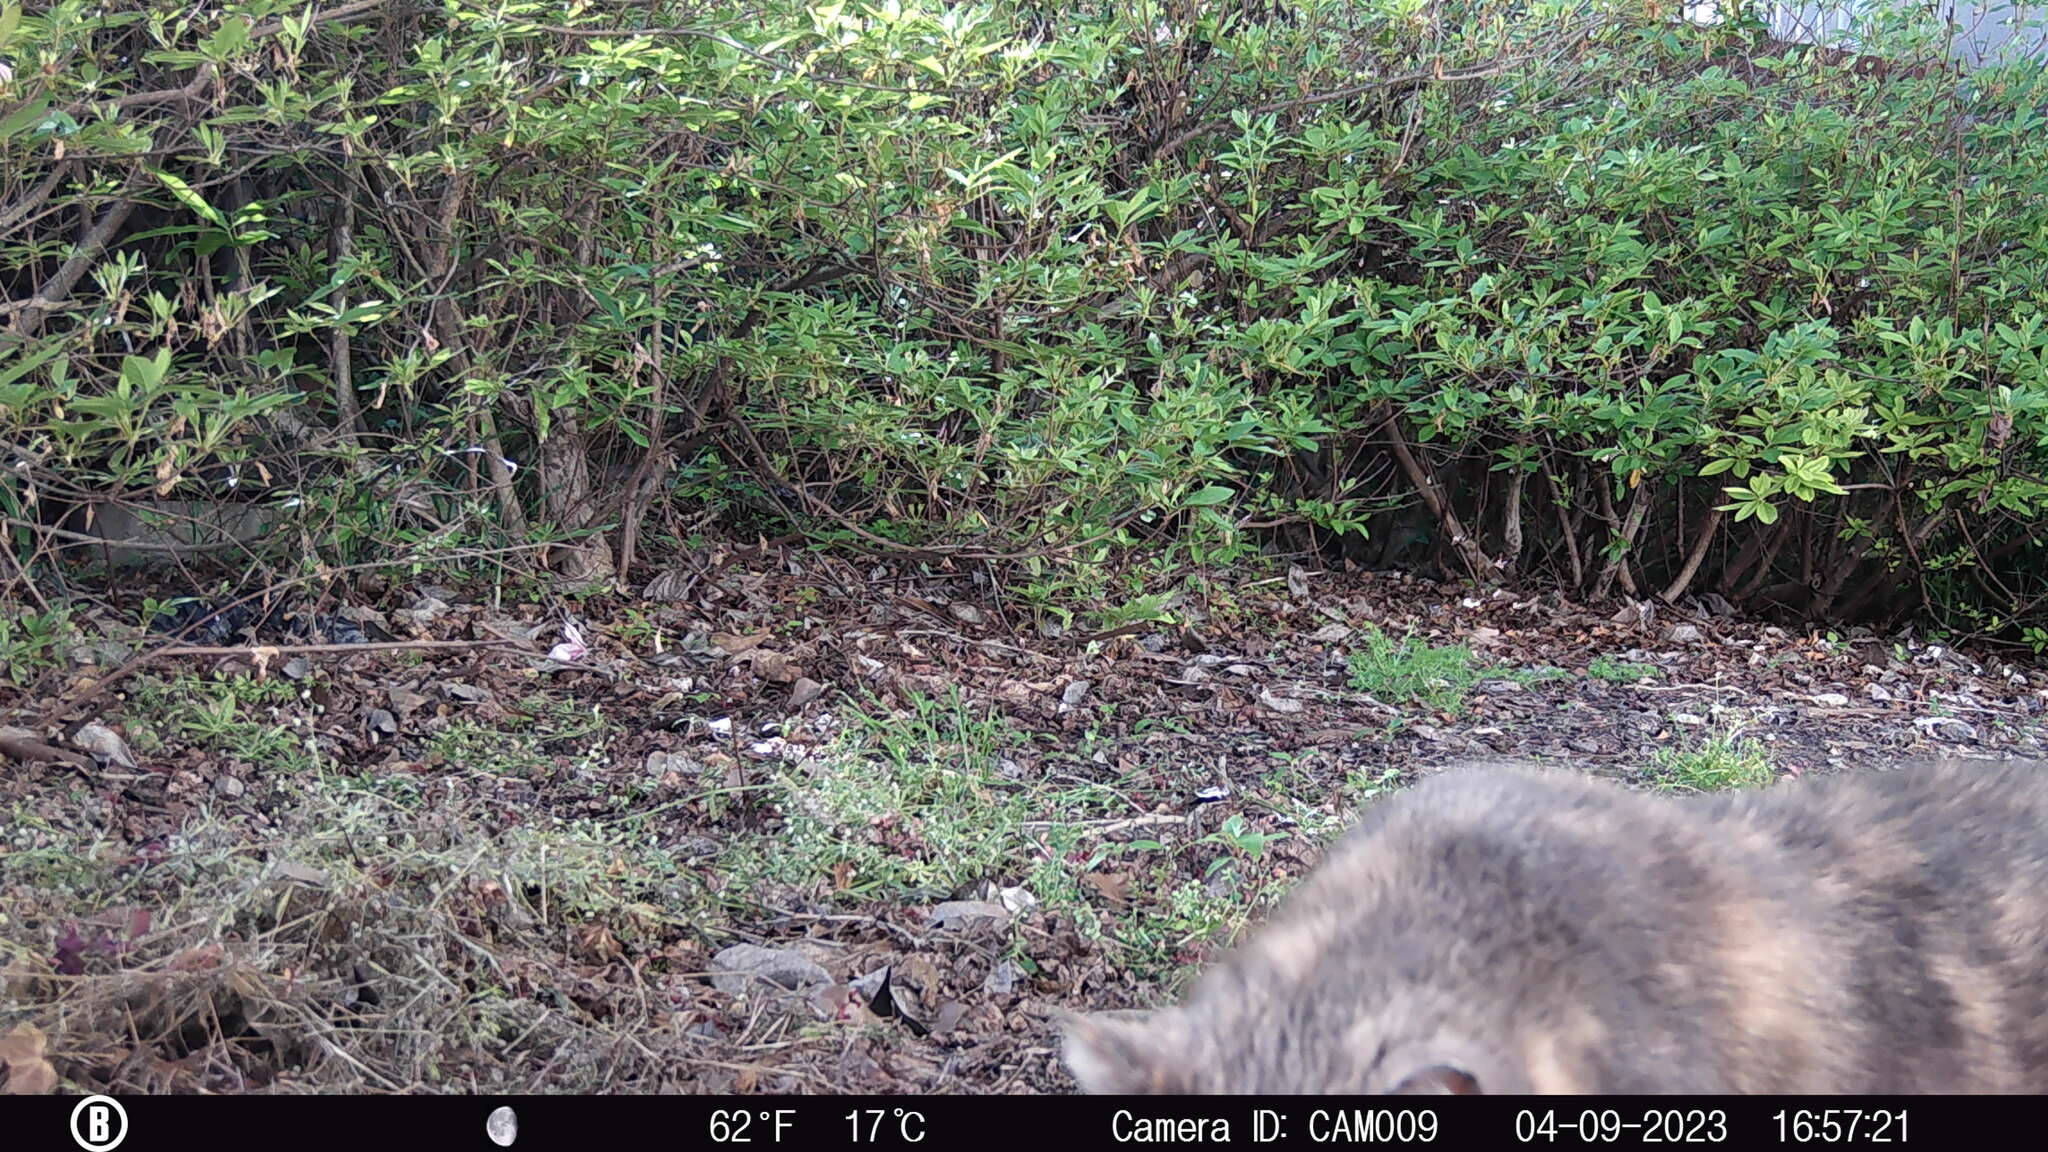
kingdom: Animalia
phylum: Chordata
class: Mammalia
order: Carnivora
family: Felidae
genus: Felis
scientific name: Felis catus
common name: Domestic cat
